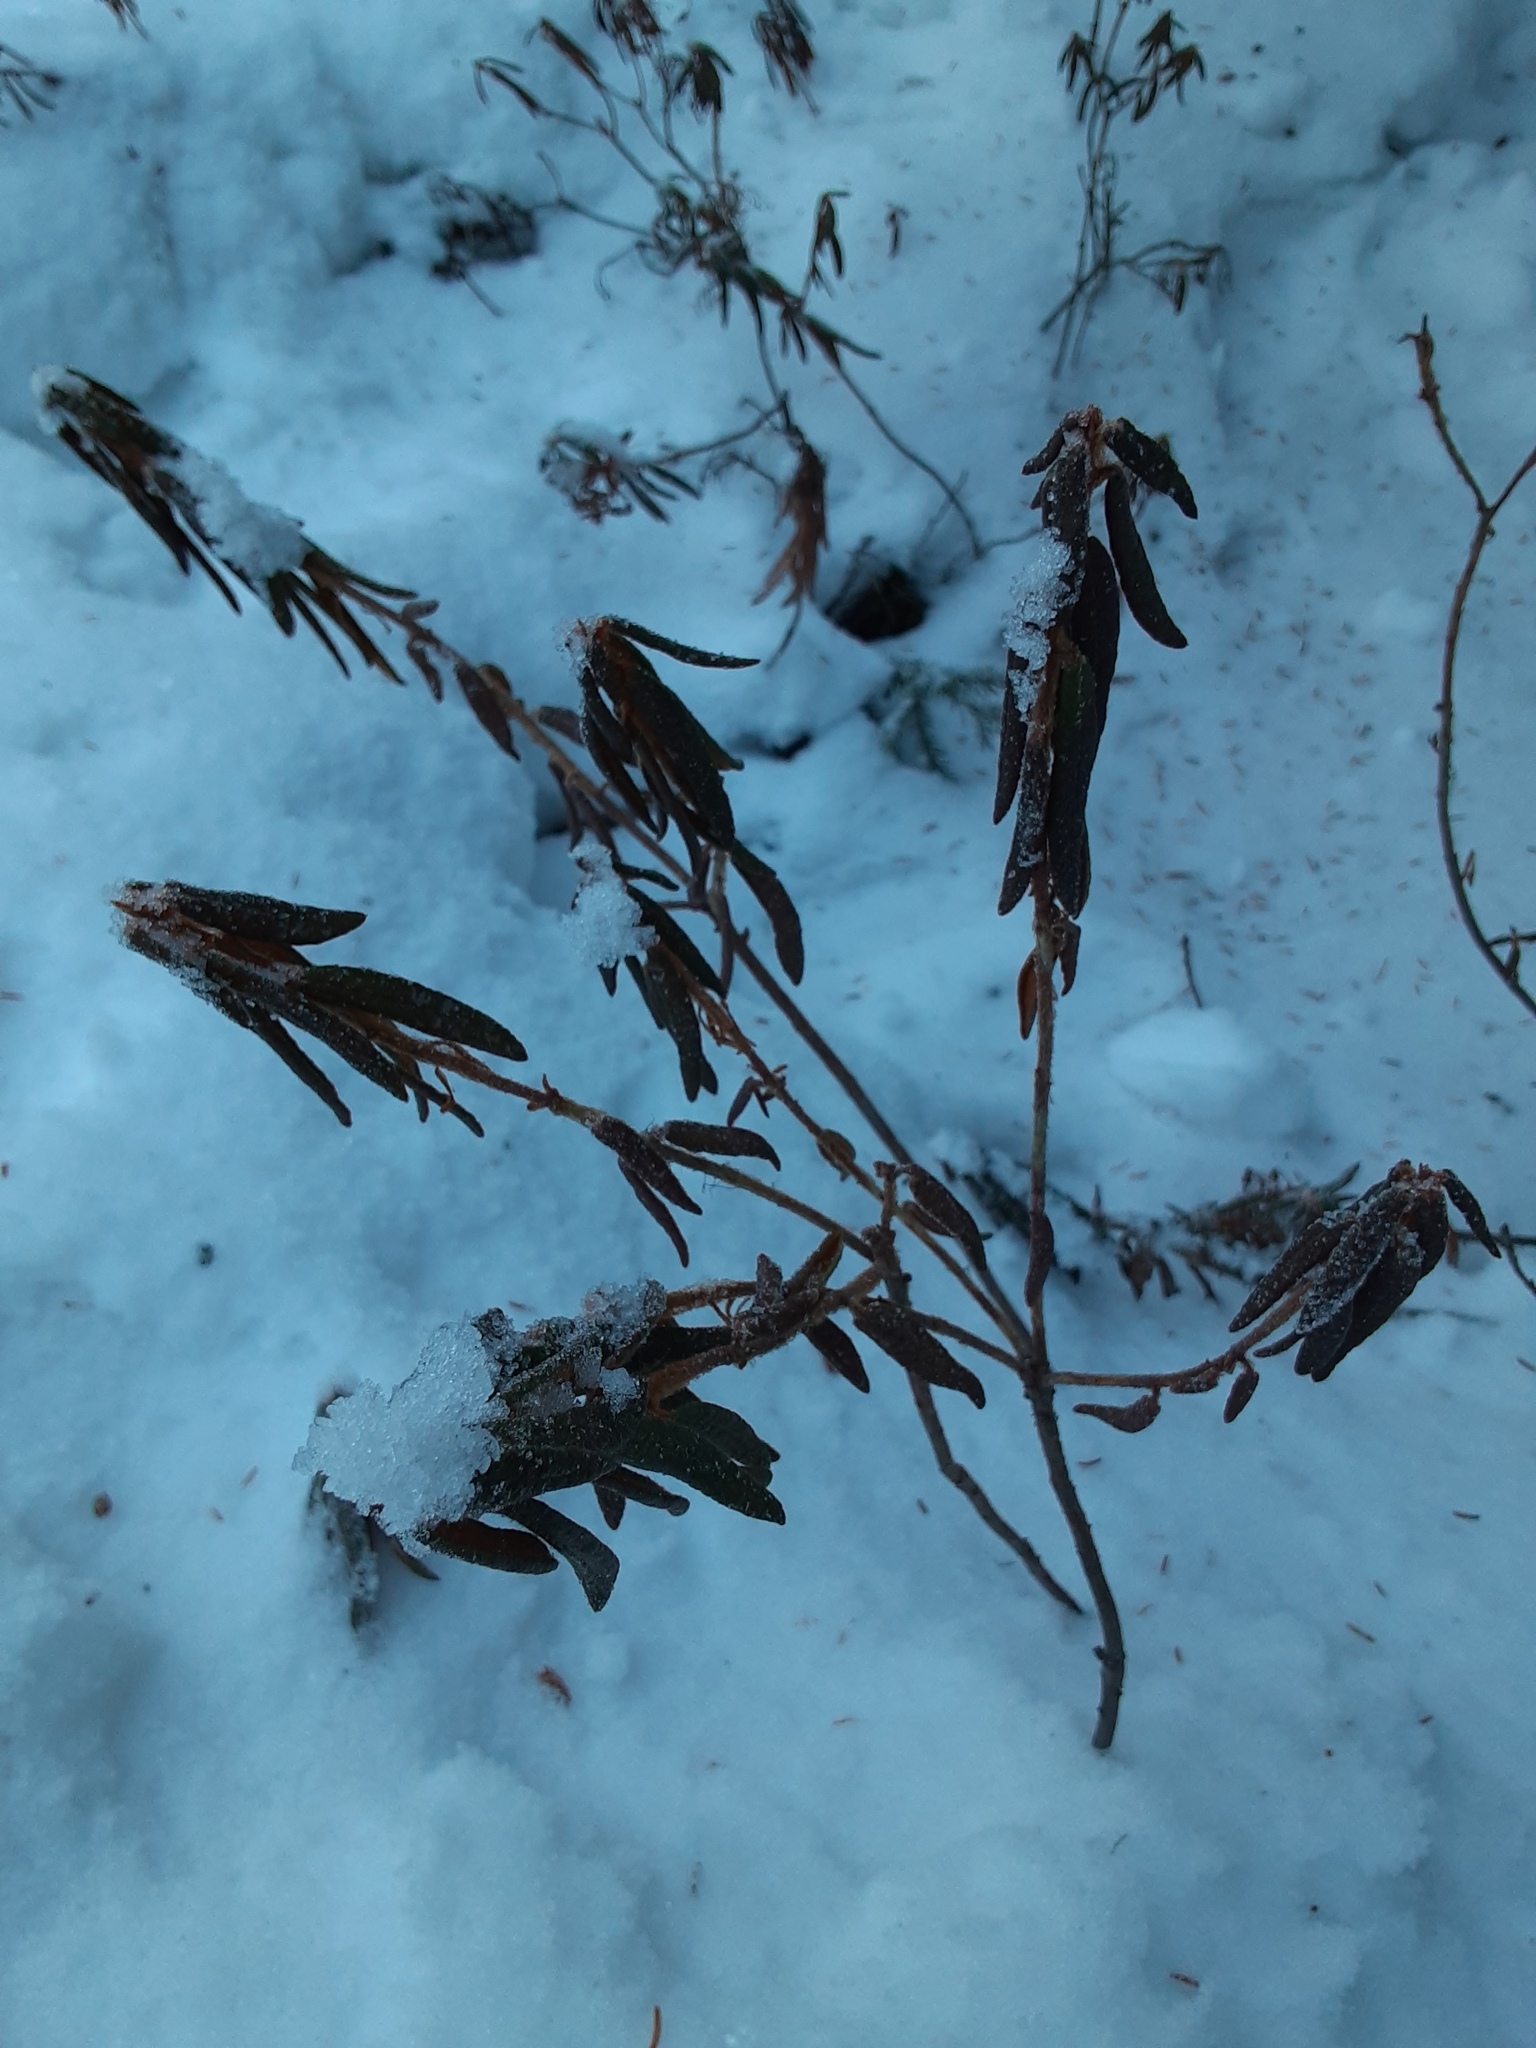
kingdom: Plantae
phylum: Tracheophyta
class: Magnoliopsida
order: Ericales
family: Ericaceae
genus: Rhododendron
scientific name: Rhododendron groenlandicum
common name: Bog labrador tea
